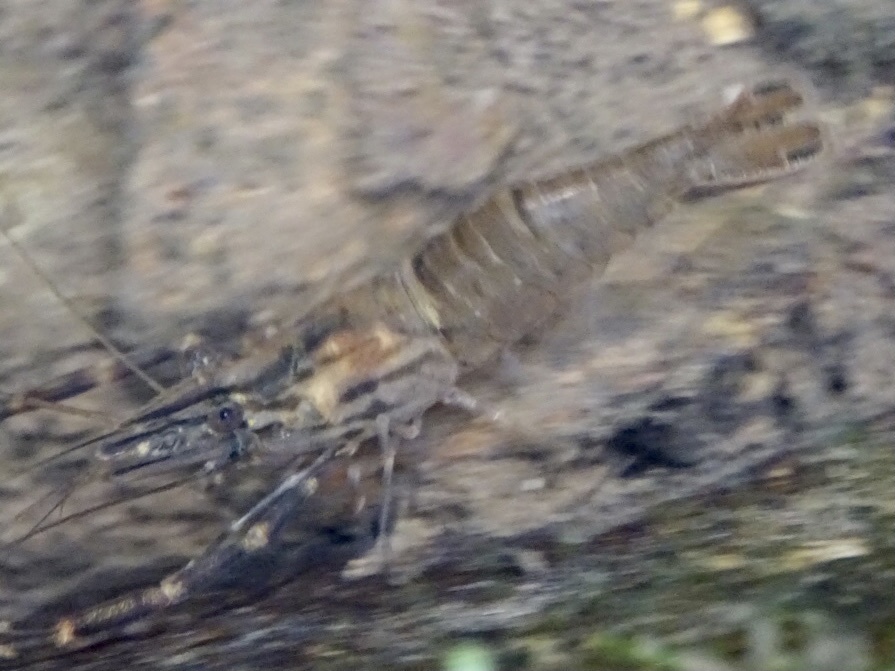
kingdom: Animalia
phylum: Arthropoda
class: Malacostraca
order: Decapoda
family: Palaemonidae
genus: Macrobrachium
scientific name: Macrobrachium laevis
